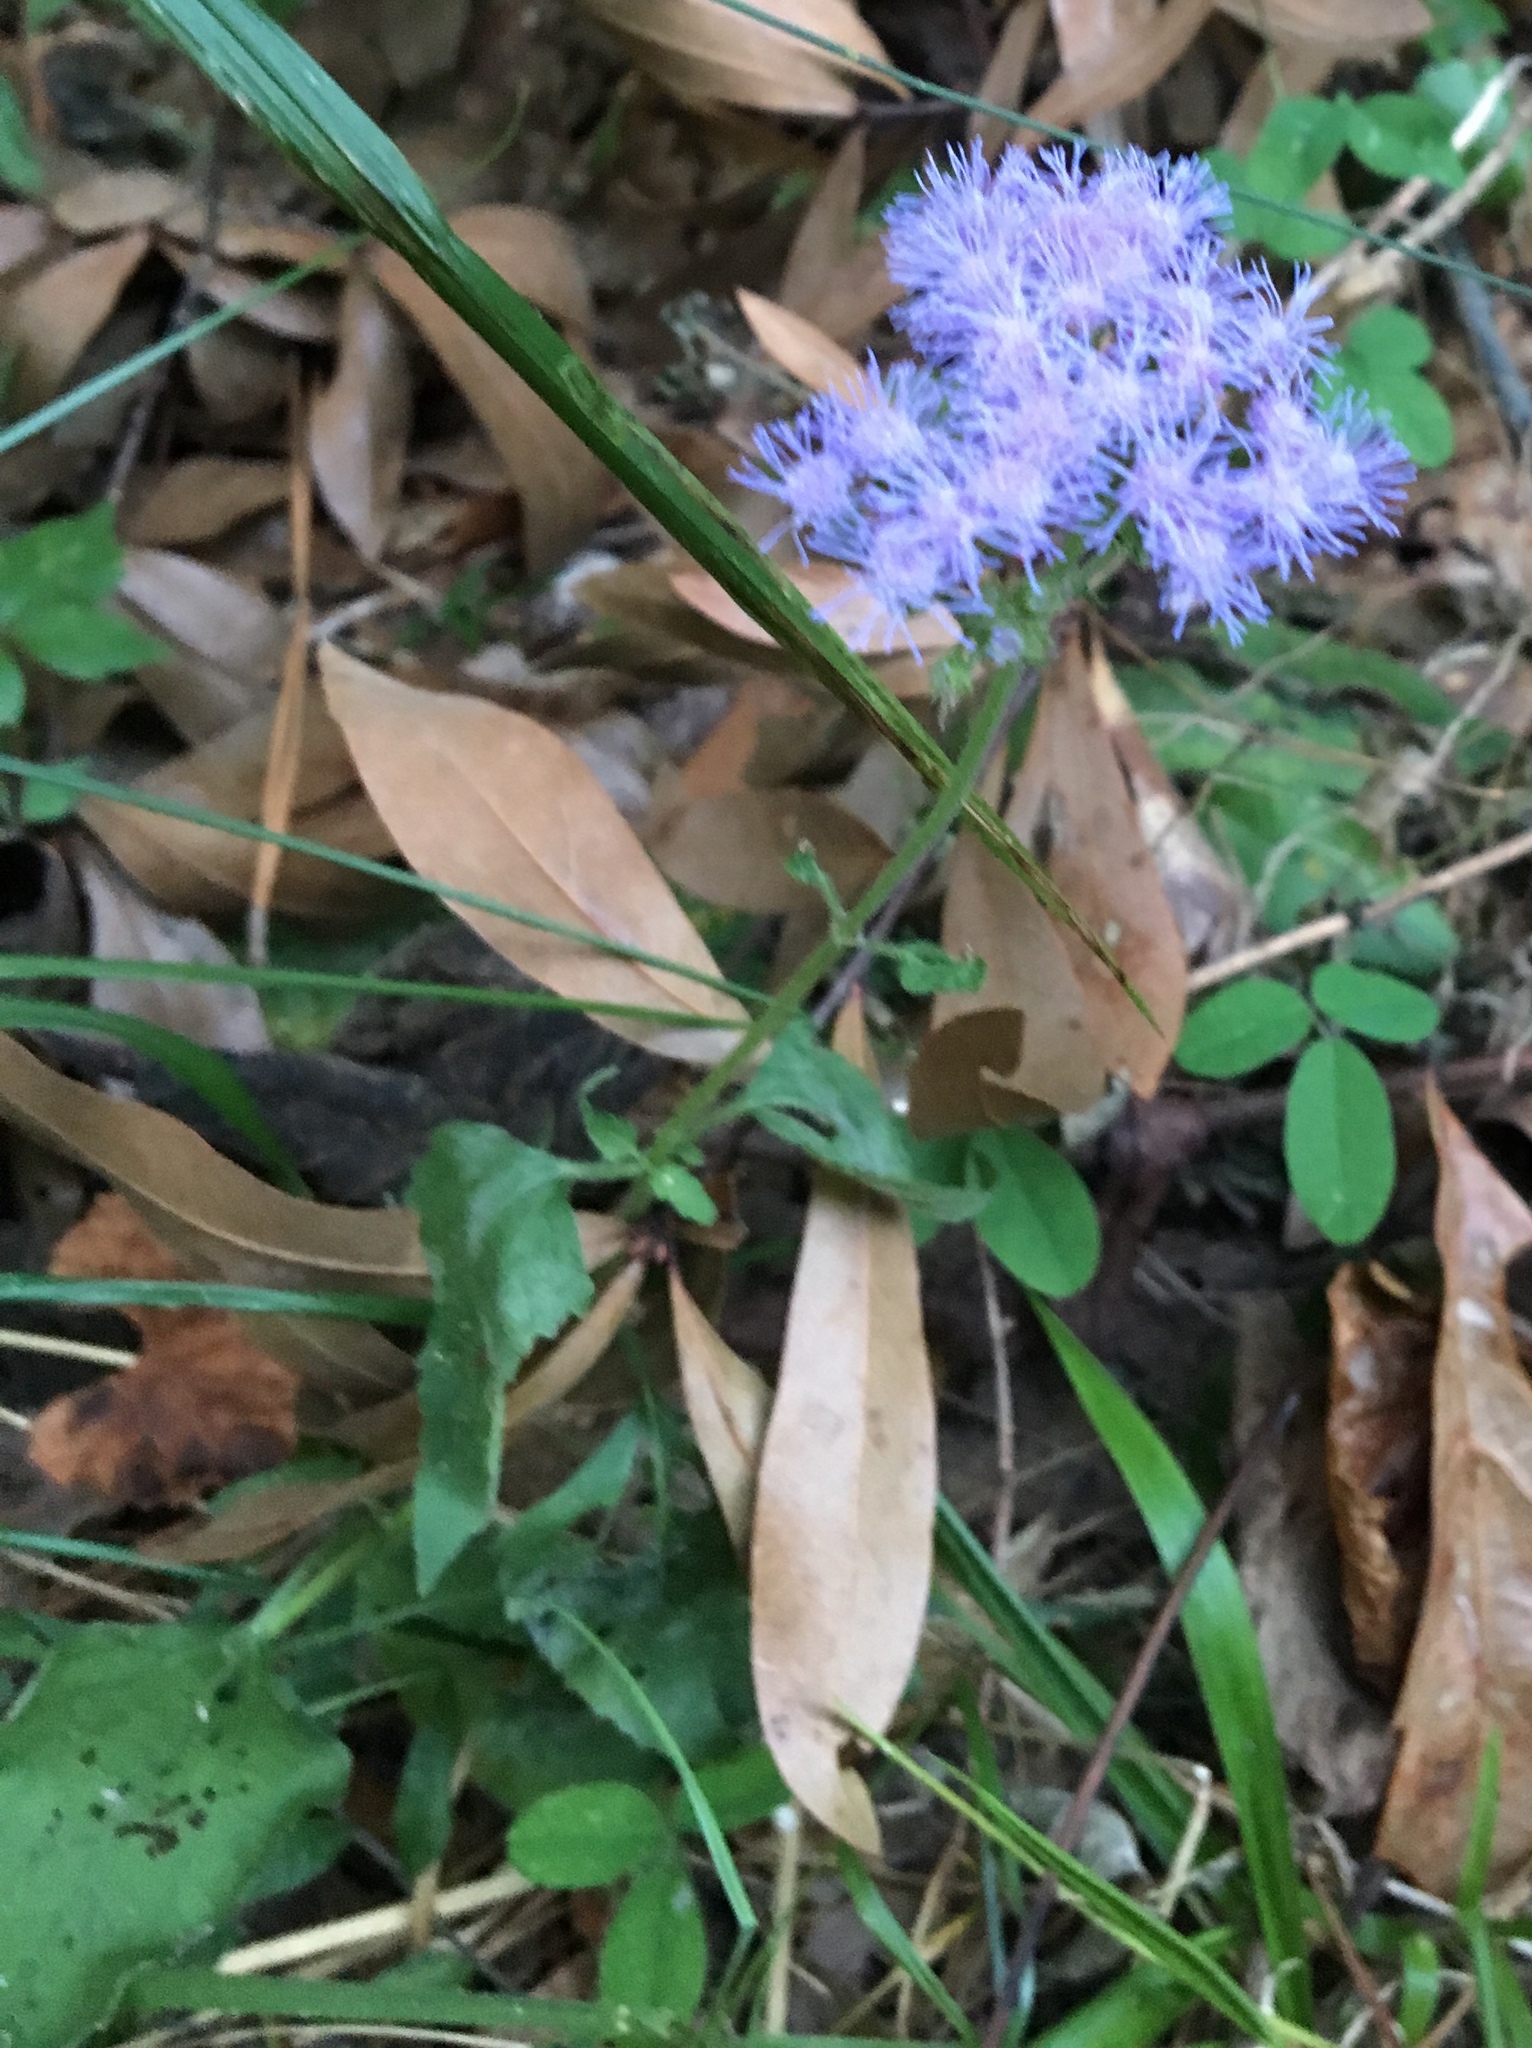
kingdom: Plantae
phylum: Tracheophyta
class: Magnoliopsida
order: Asterales
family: Asteraceae
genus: Conoclinium
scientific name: Conoclinium coelestinum
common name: Blue mistflower
